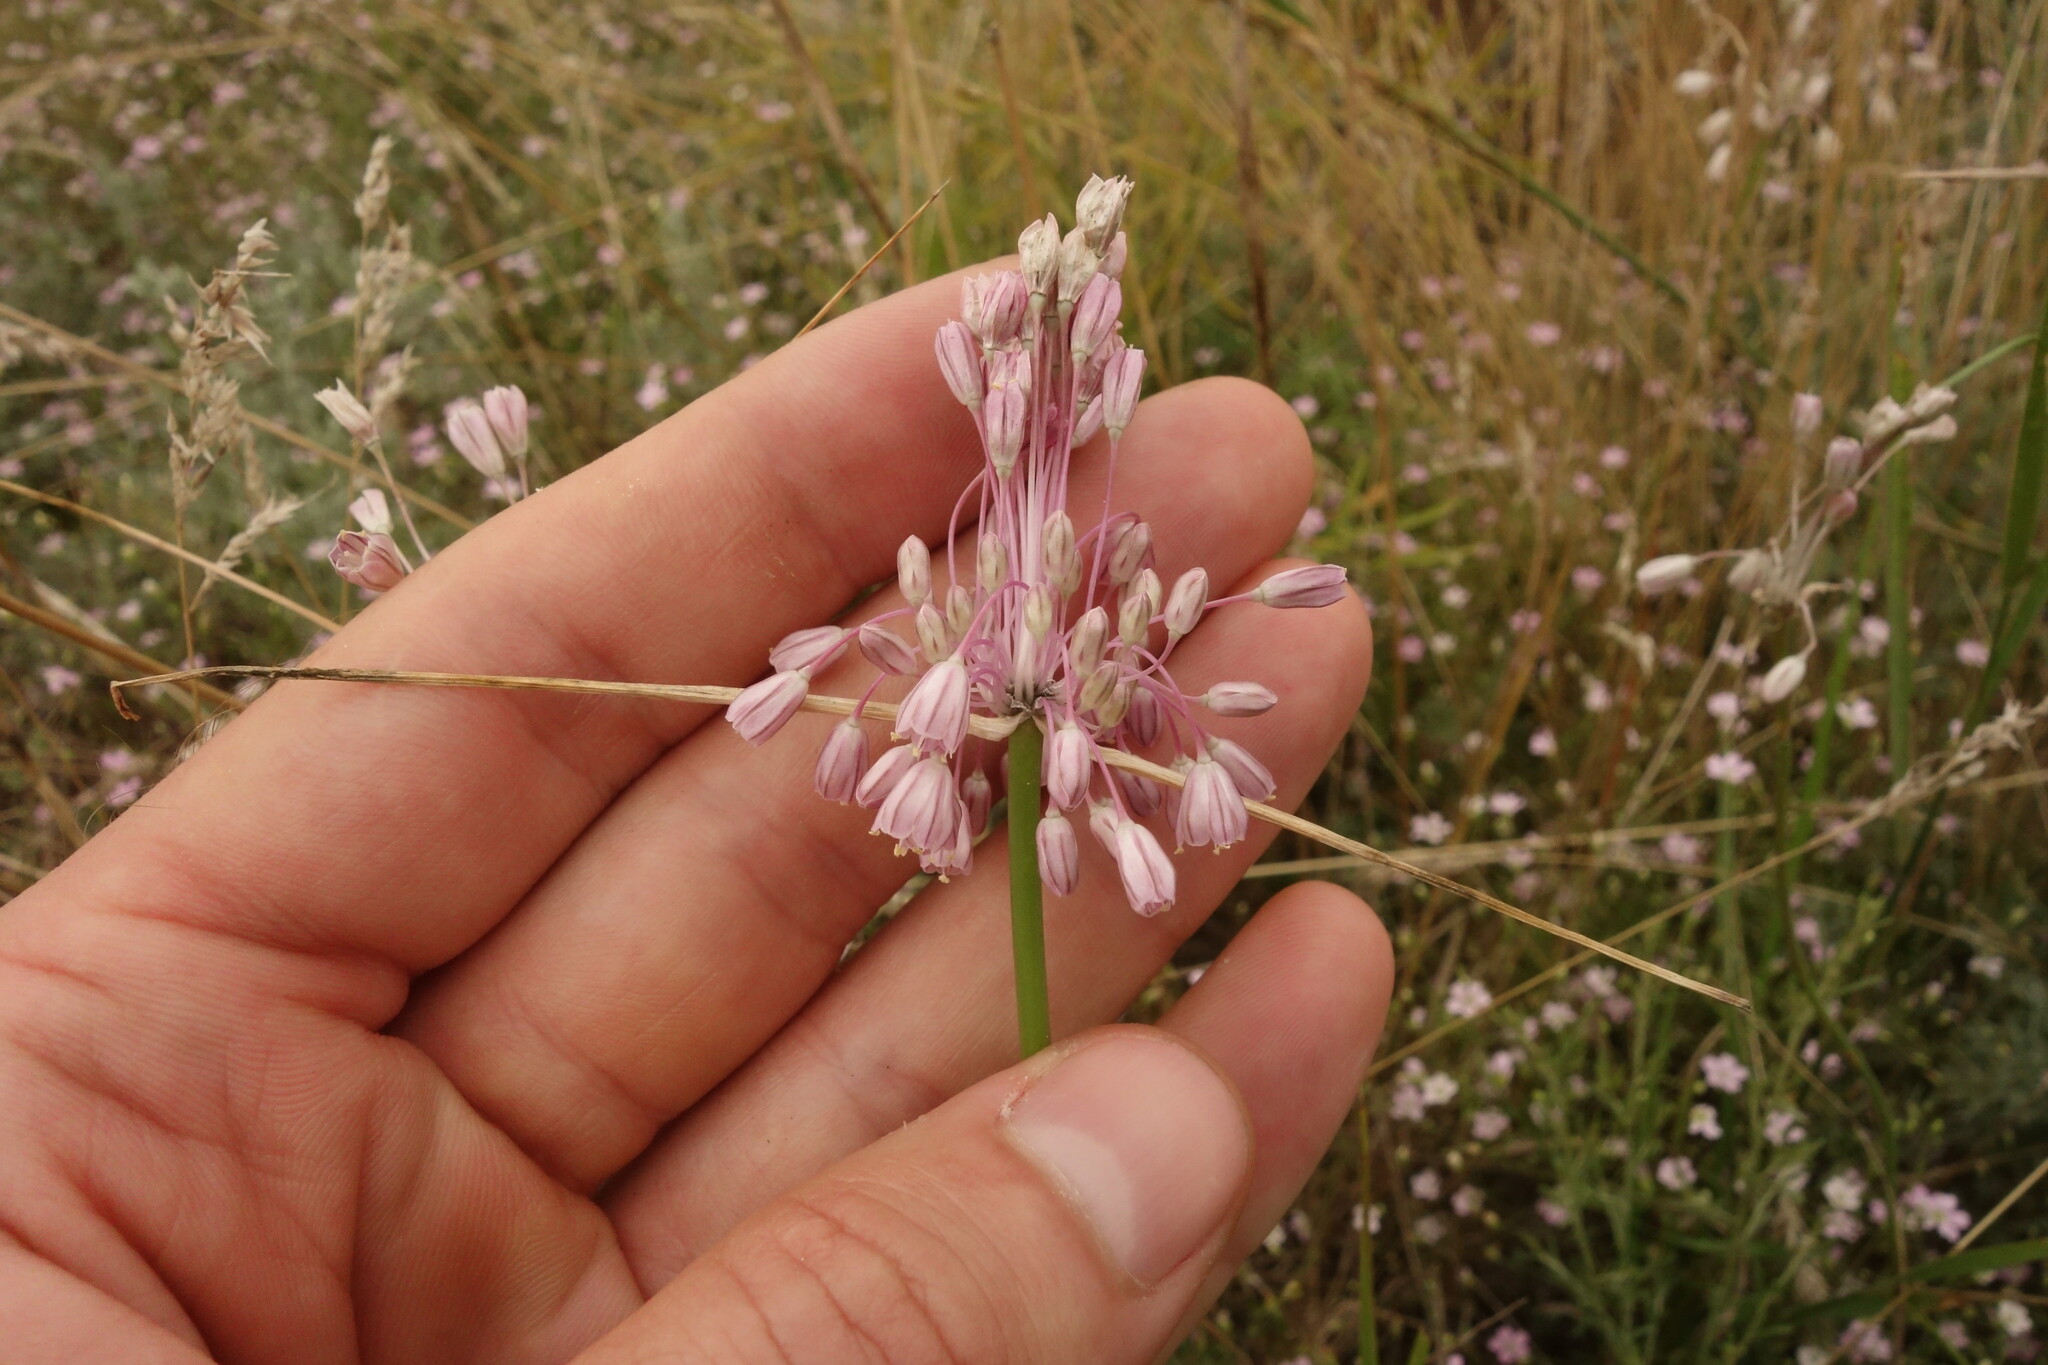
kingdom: Plantae
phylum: Tracheophyta
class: Liliopsida
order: Asparagales
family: Amaryllidaceae
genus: Allium
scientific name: Allium paniculatum
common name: Pale garlic
